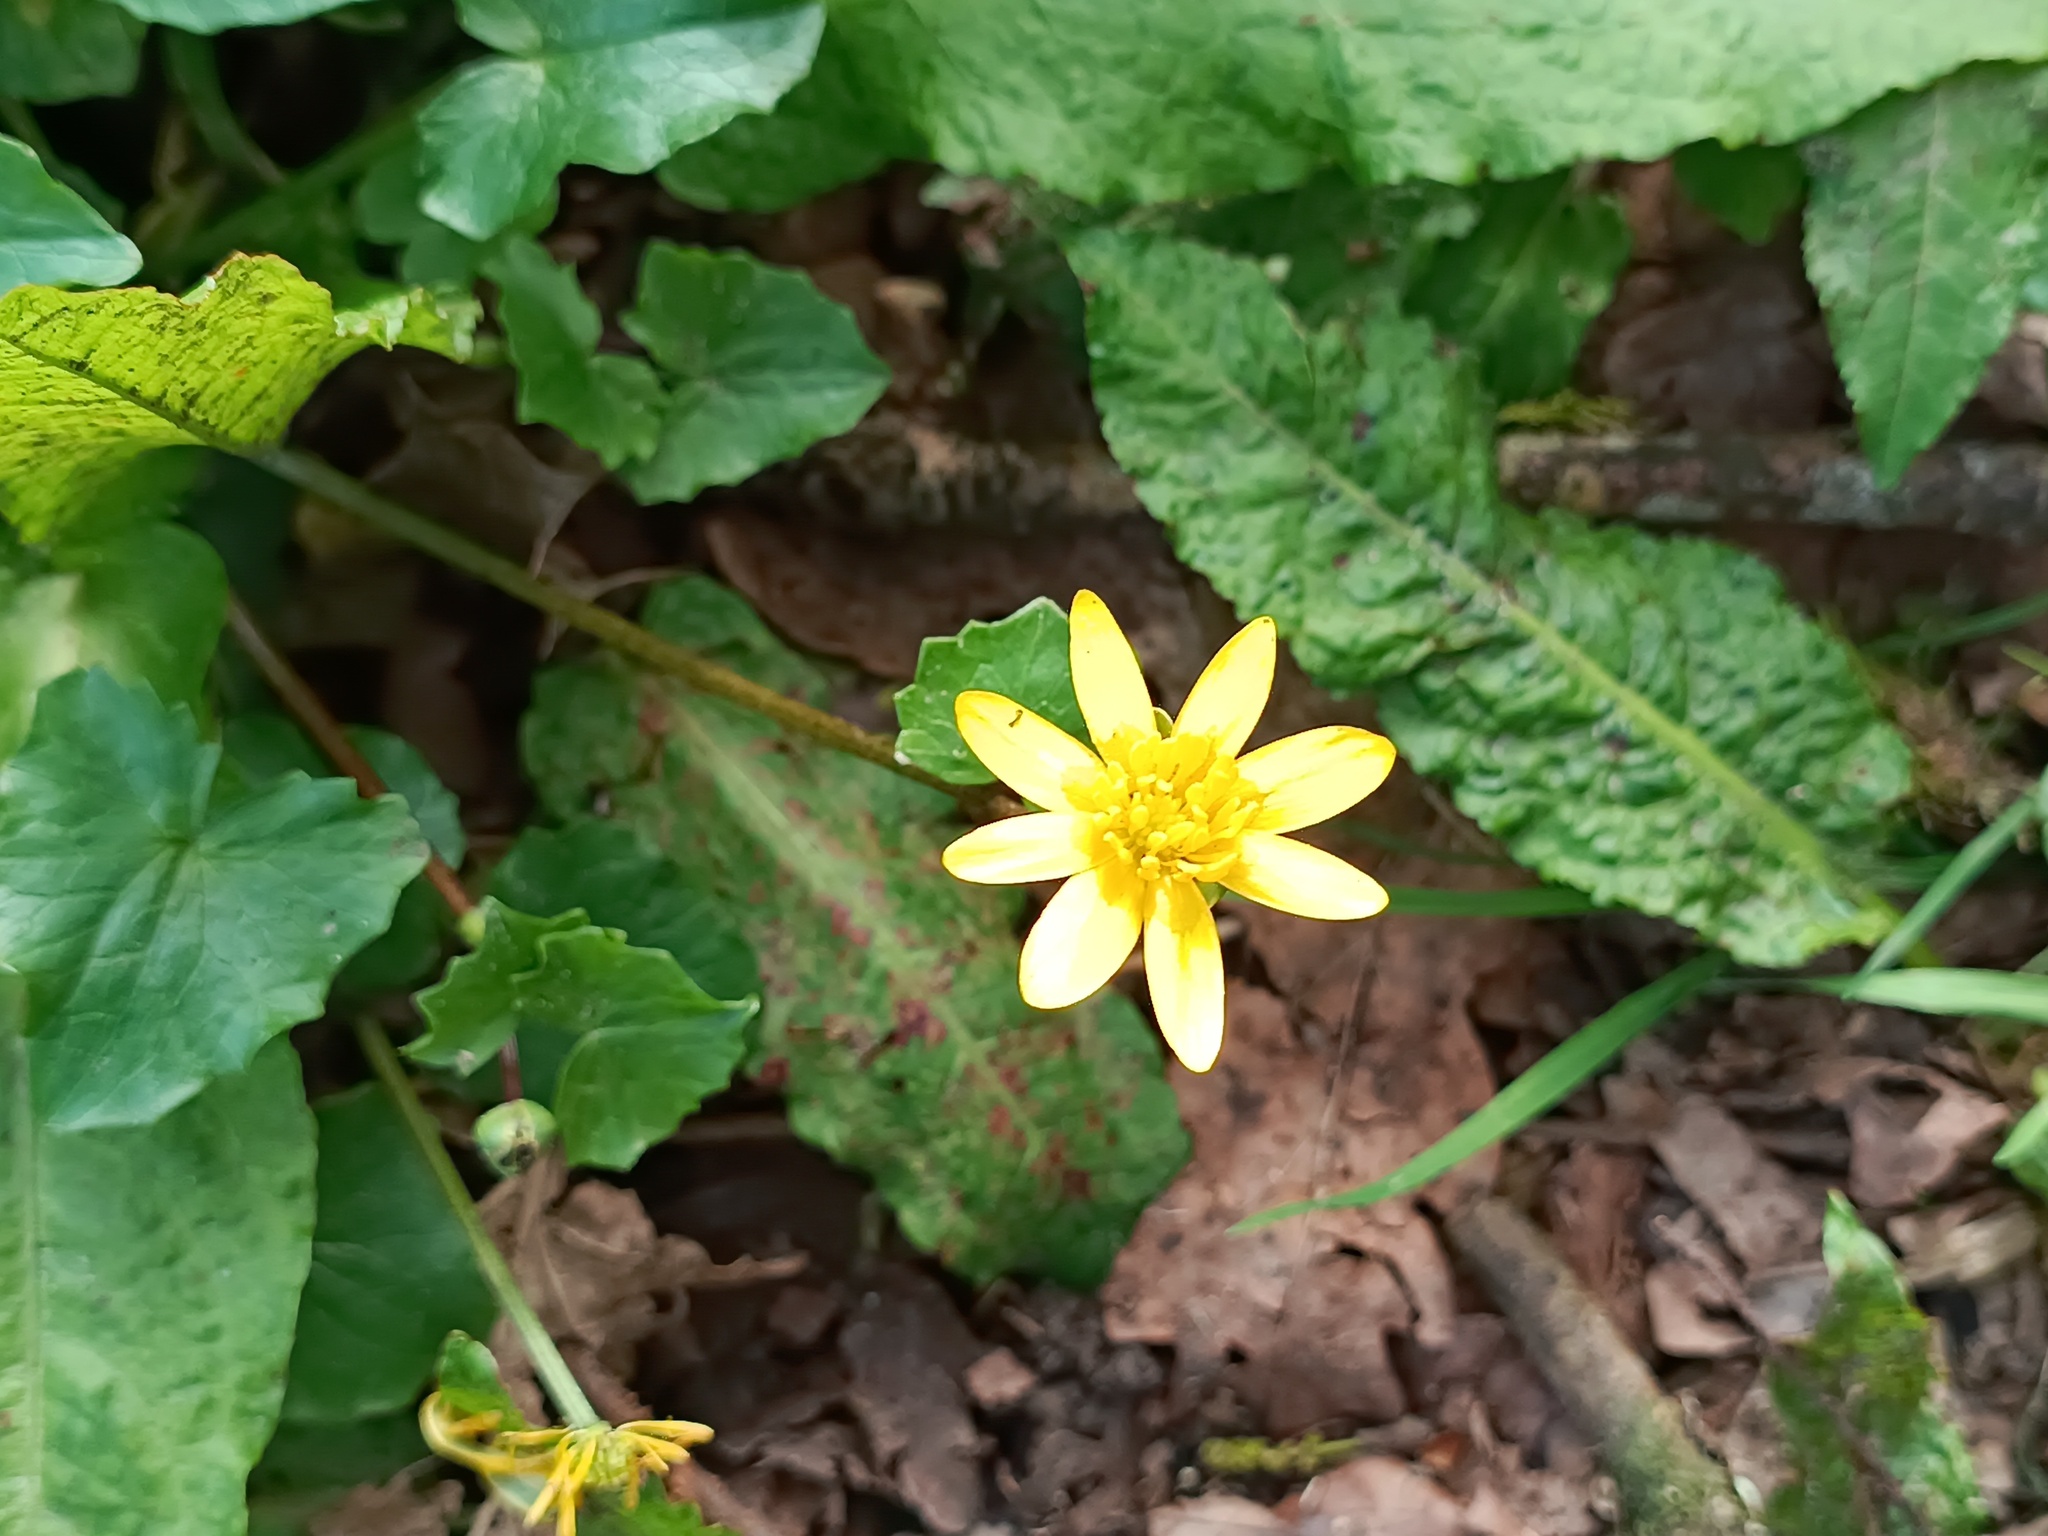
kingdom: Plantae
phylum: Tracheophyta
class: Magnoliopsida
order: Ranunculales
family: Ranunculaceae
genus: Ficaria
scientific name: Ficaria verna
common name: Lesser celandine
